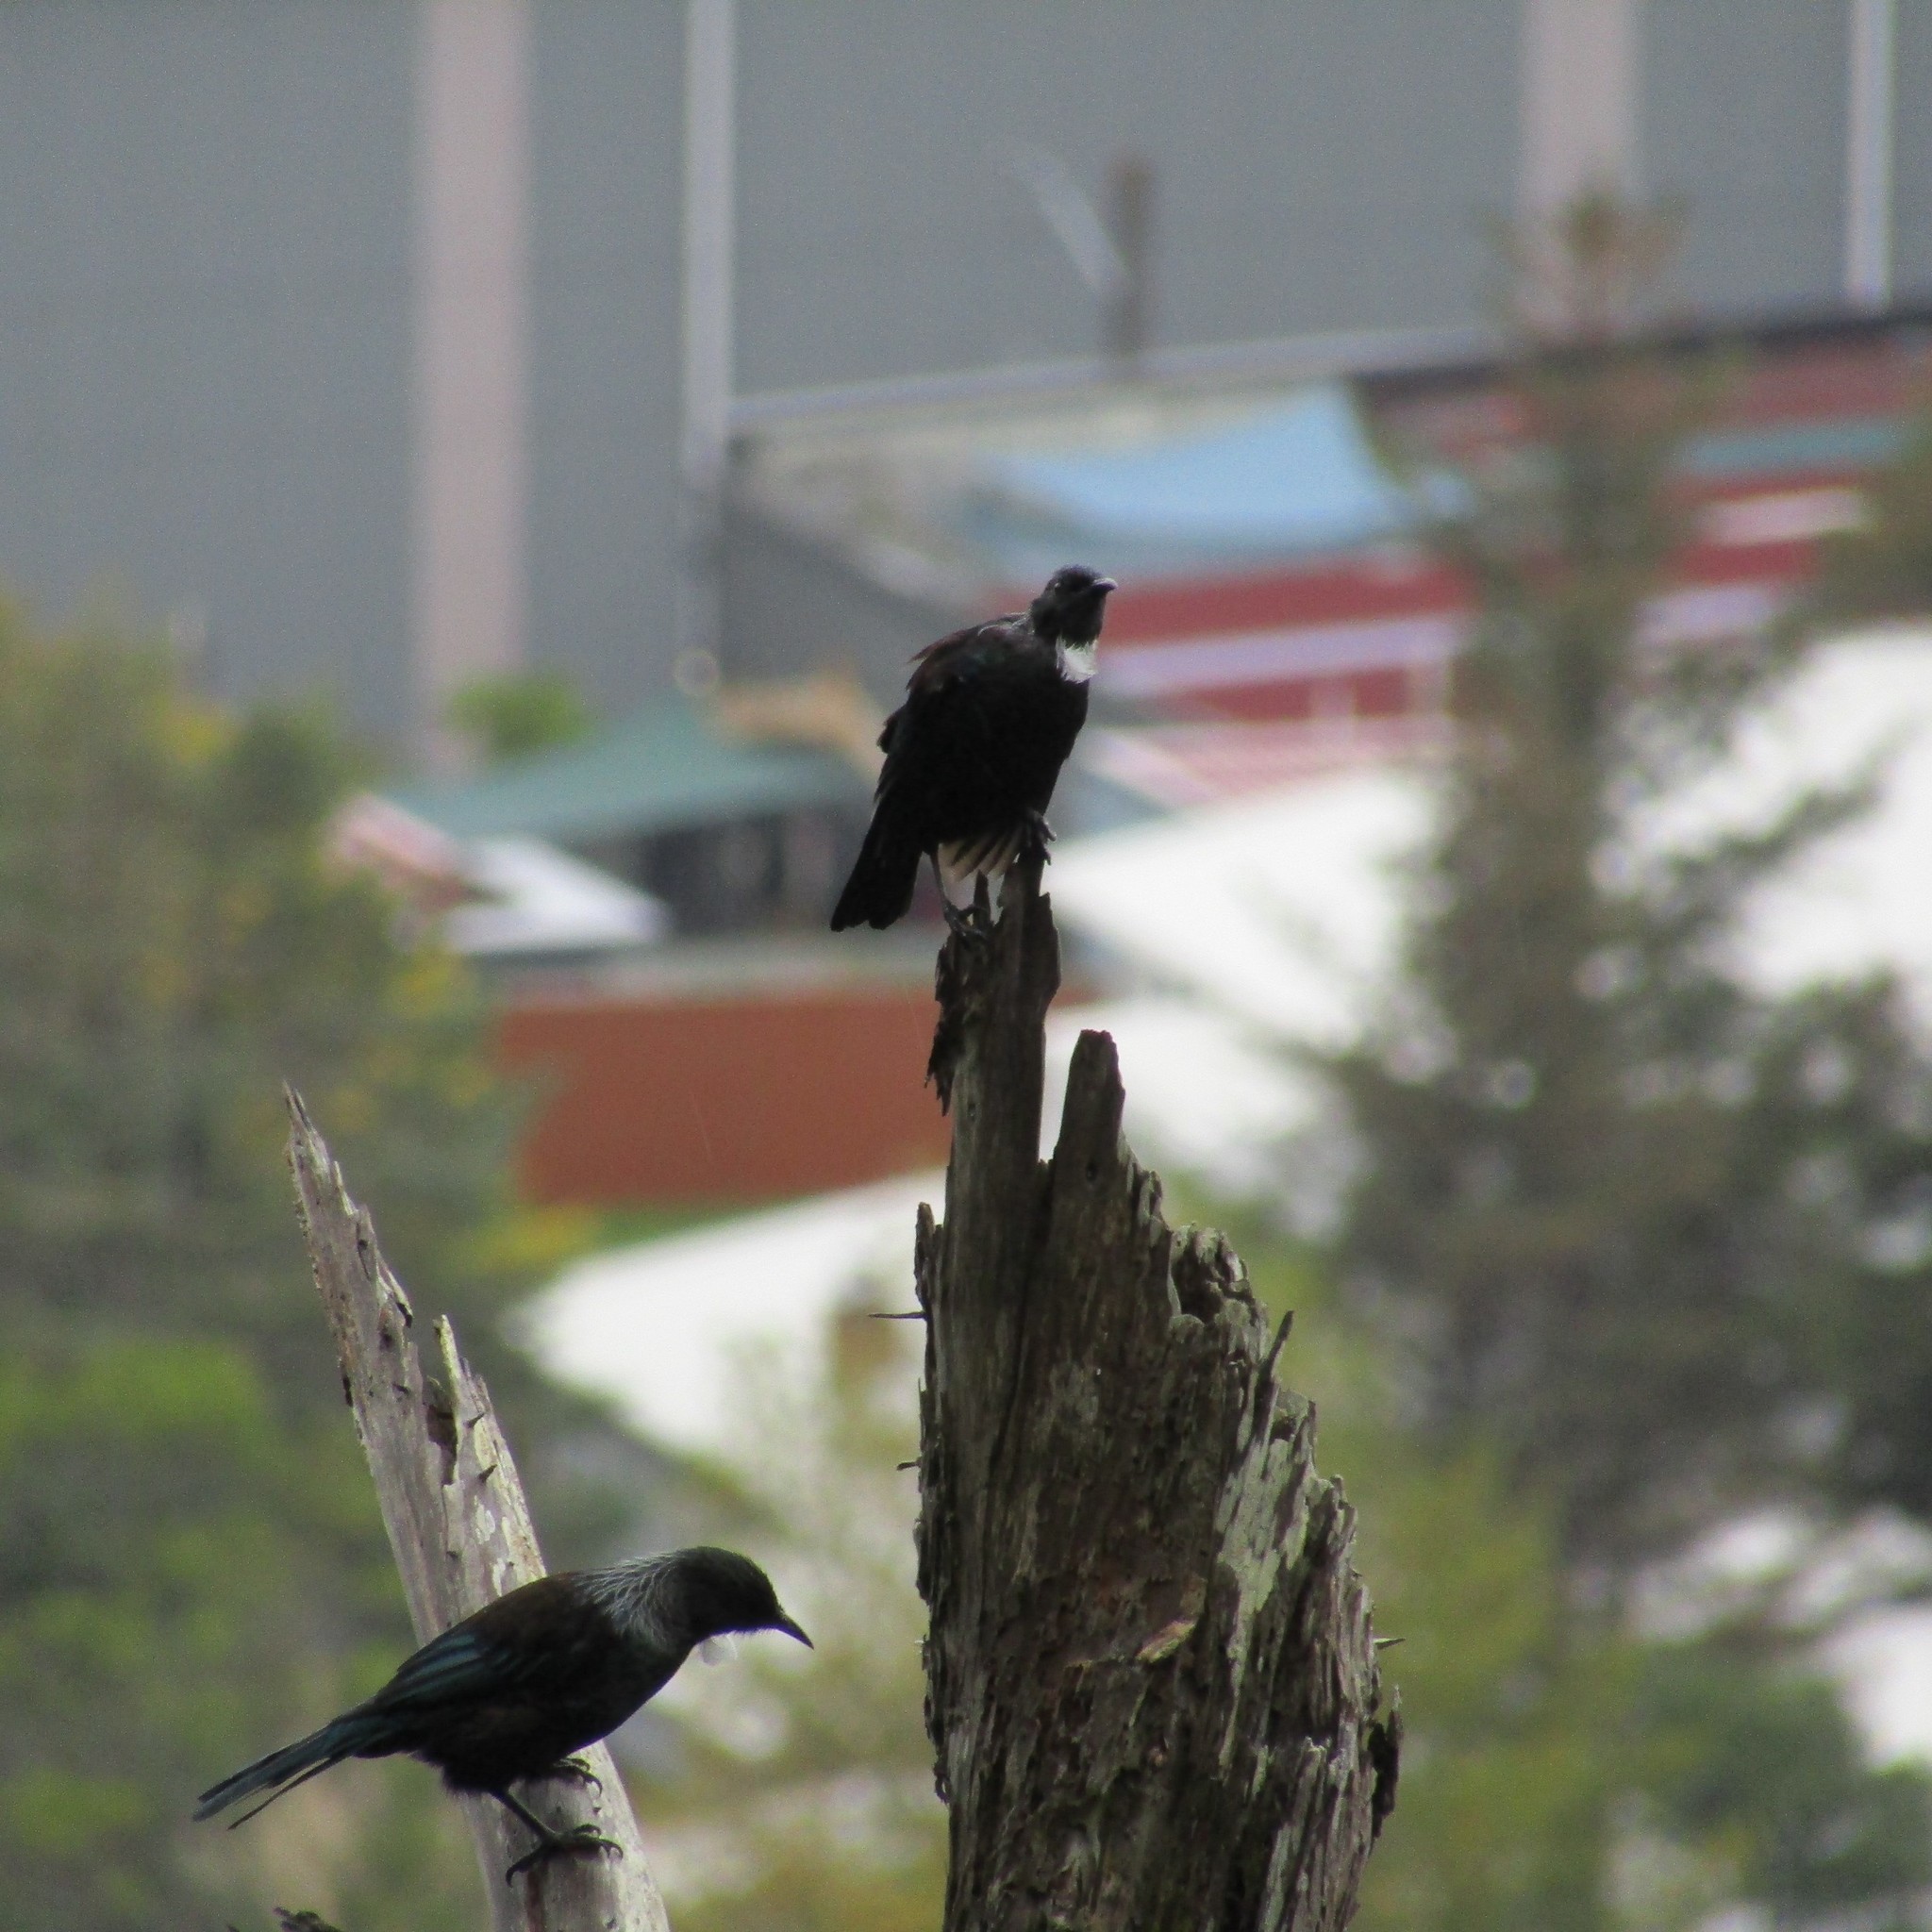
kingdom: Animalia
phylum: Chordata
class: Aves
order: Passeriformes
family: Meliphagidae
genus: Prosthemadera
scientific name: Prosthemadera novaeseelandiae
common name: Tui
